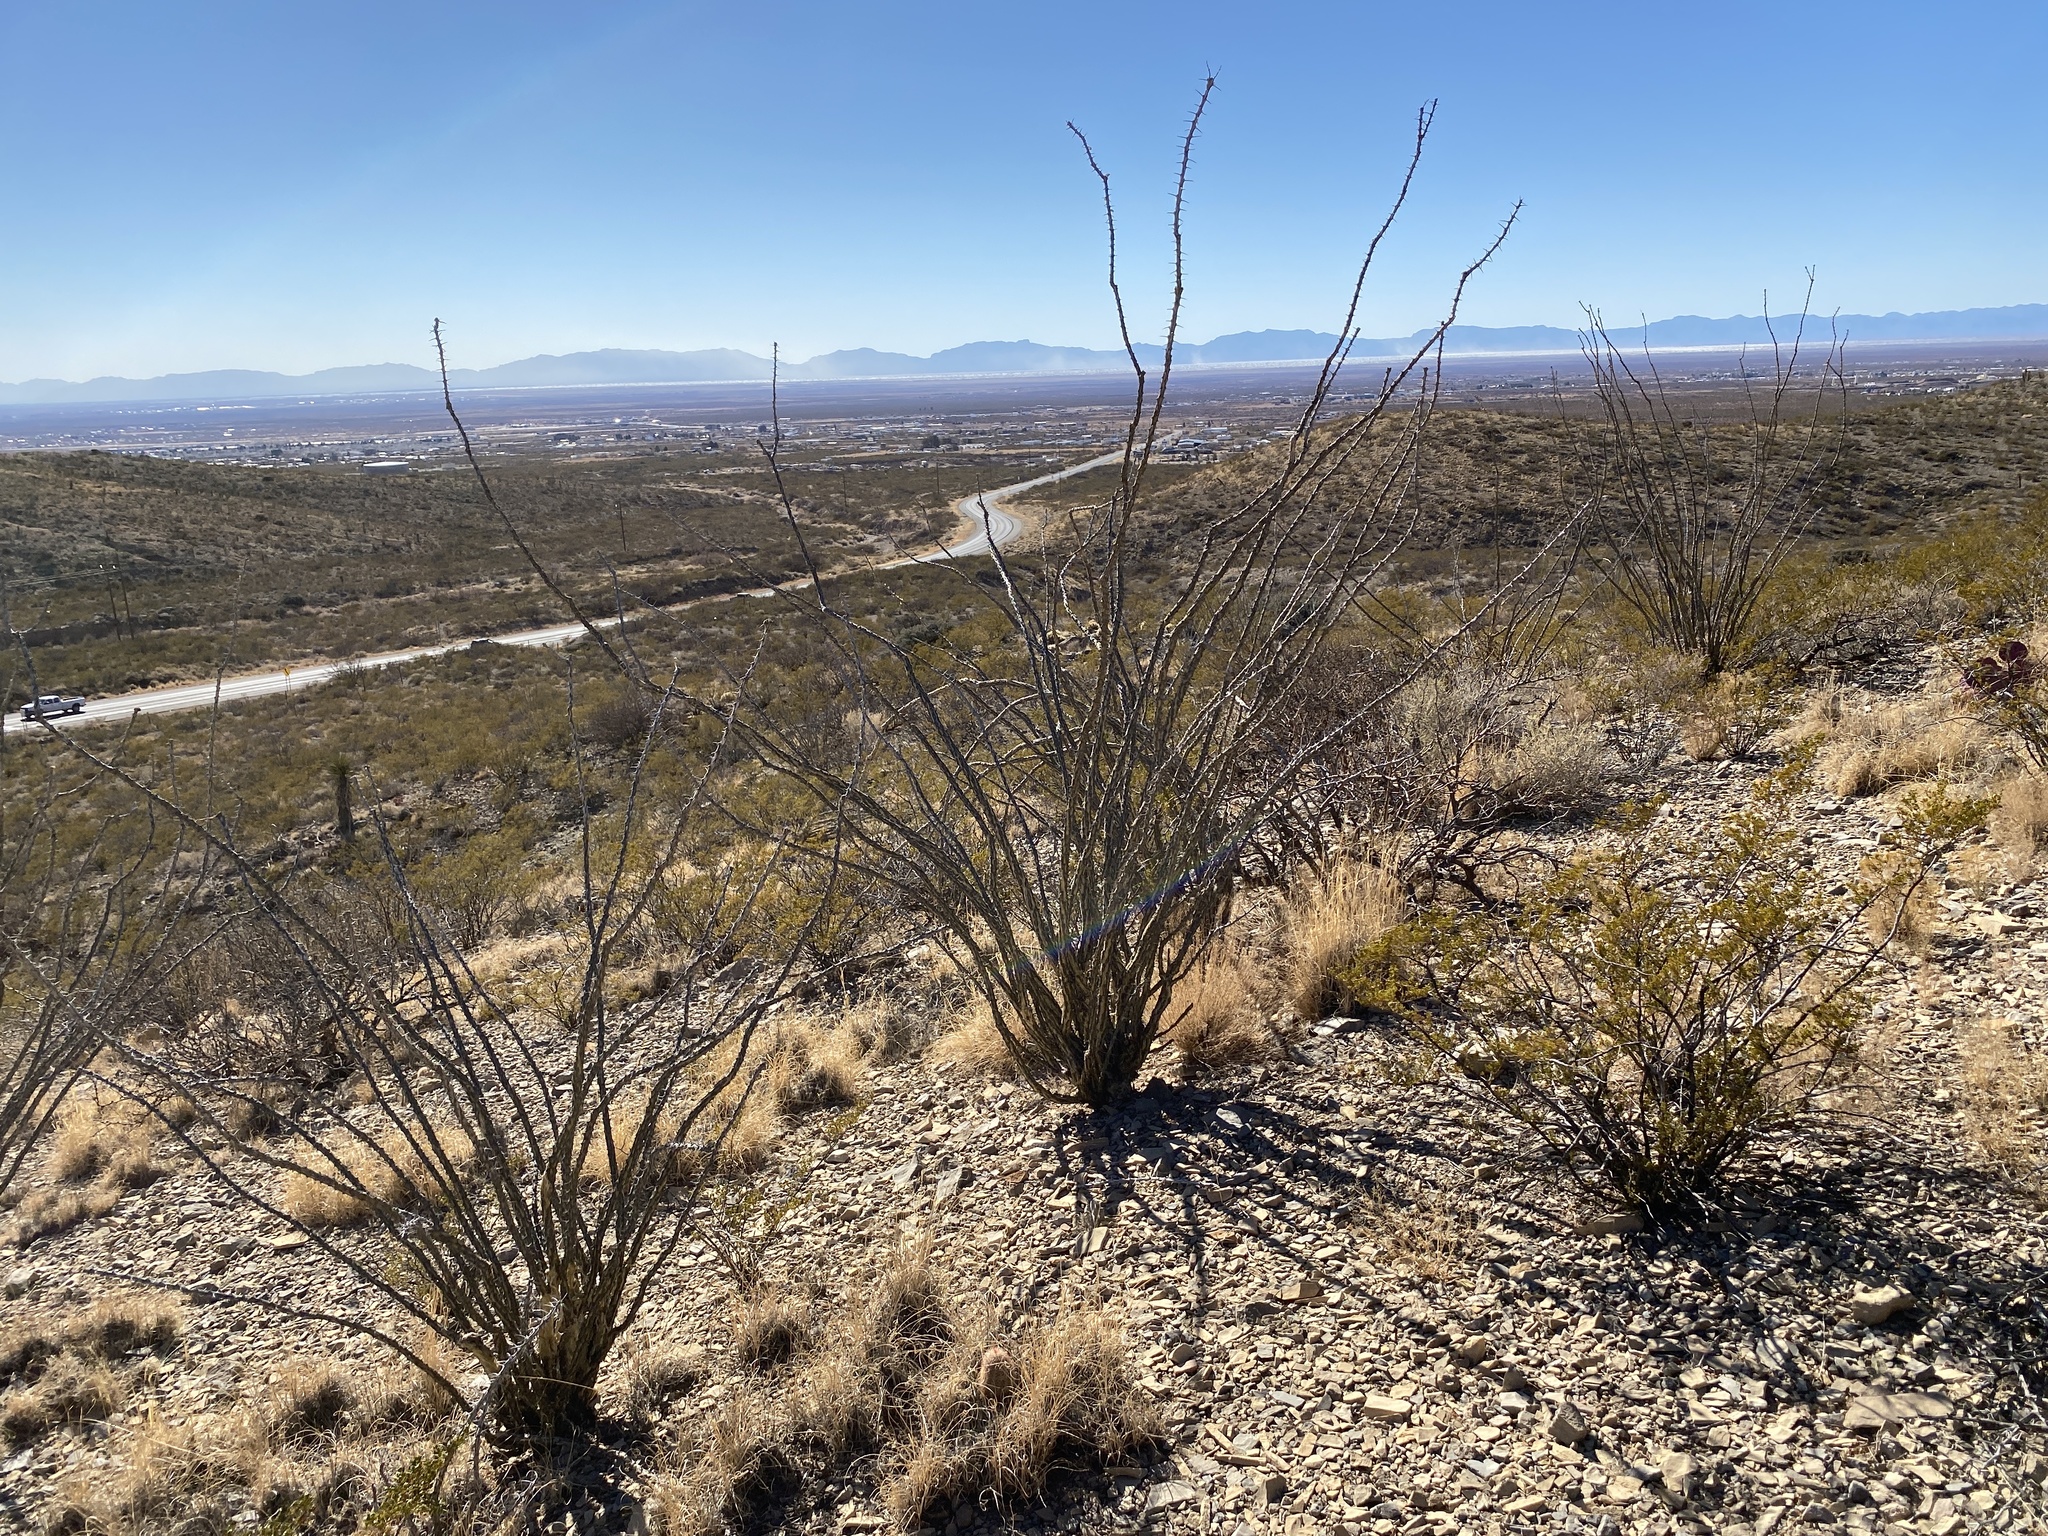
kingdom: Plantae
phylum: Tracheophyta
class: Magnoliopsida
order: Ericales
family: Fouquieriaceae
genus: Fouquieria
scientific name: Fouquieria splendens
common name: Vine-cactus
